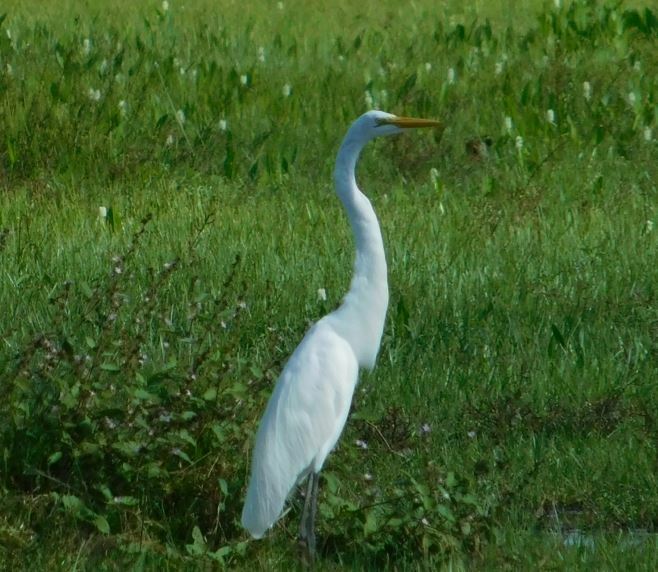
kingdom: Animalia
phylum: Chordata
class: Aves
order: Pelecaniformes
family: Ardeidae
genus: Ardea
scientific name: Ardea alba
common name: Great egret
